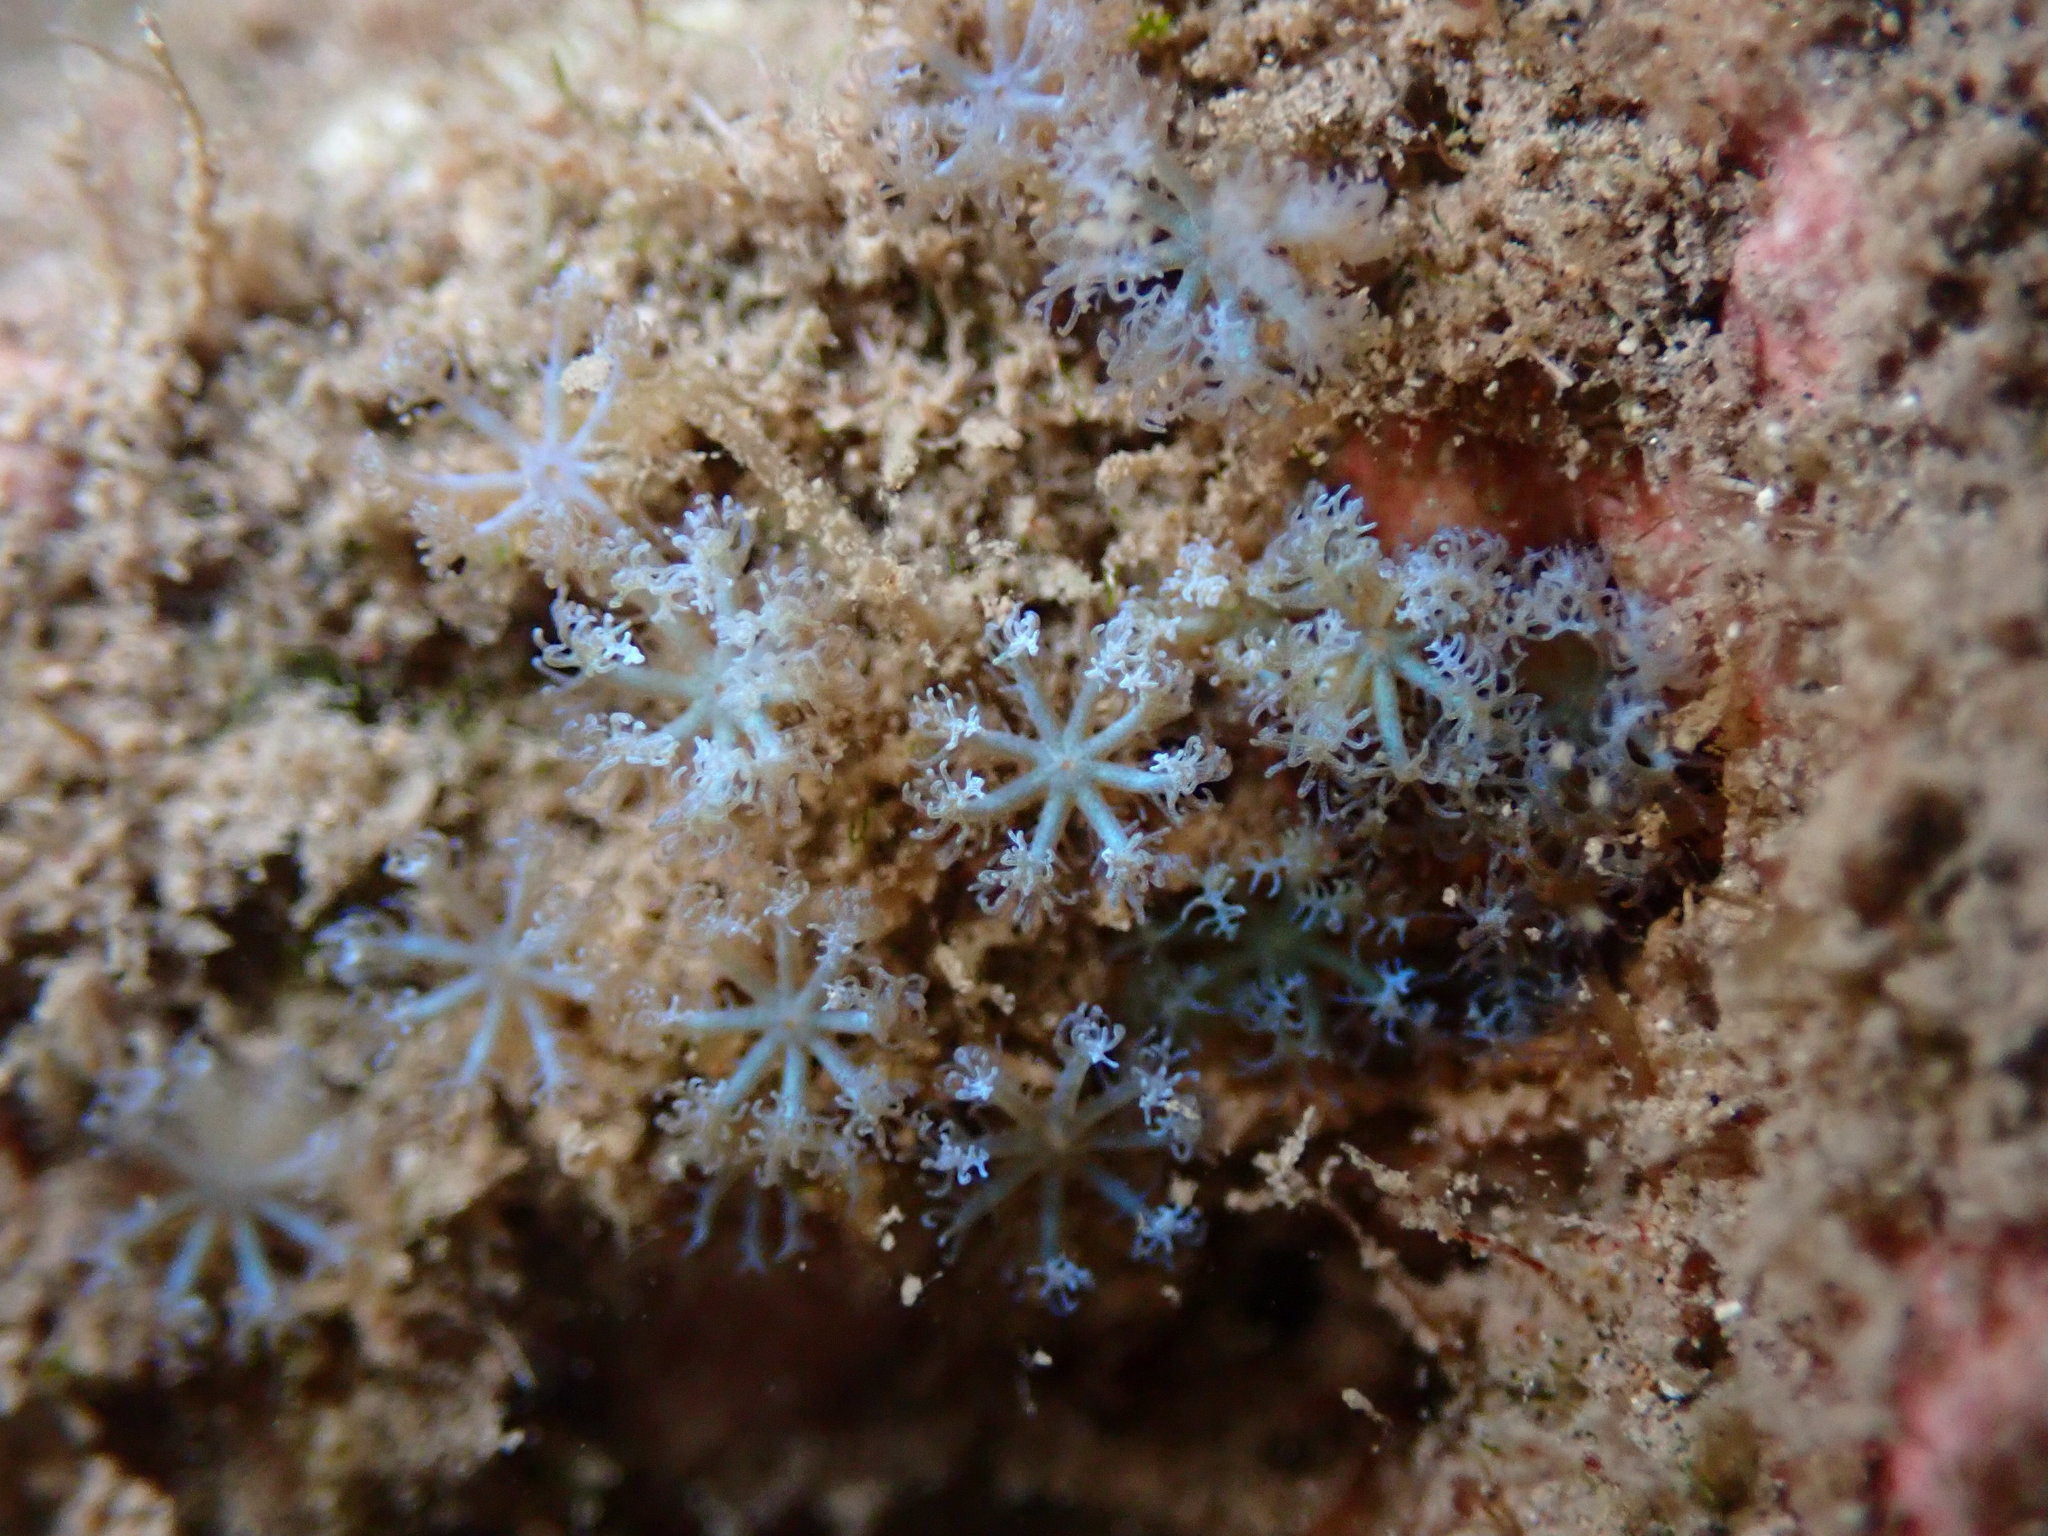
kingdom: Animalia
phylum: Cnidaria
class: Anthozoa
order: Malacalcyonacea
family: Xeniidae
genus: Sarcothelia
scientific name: Sarcothelia edmondsoni
